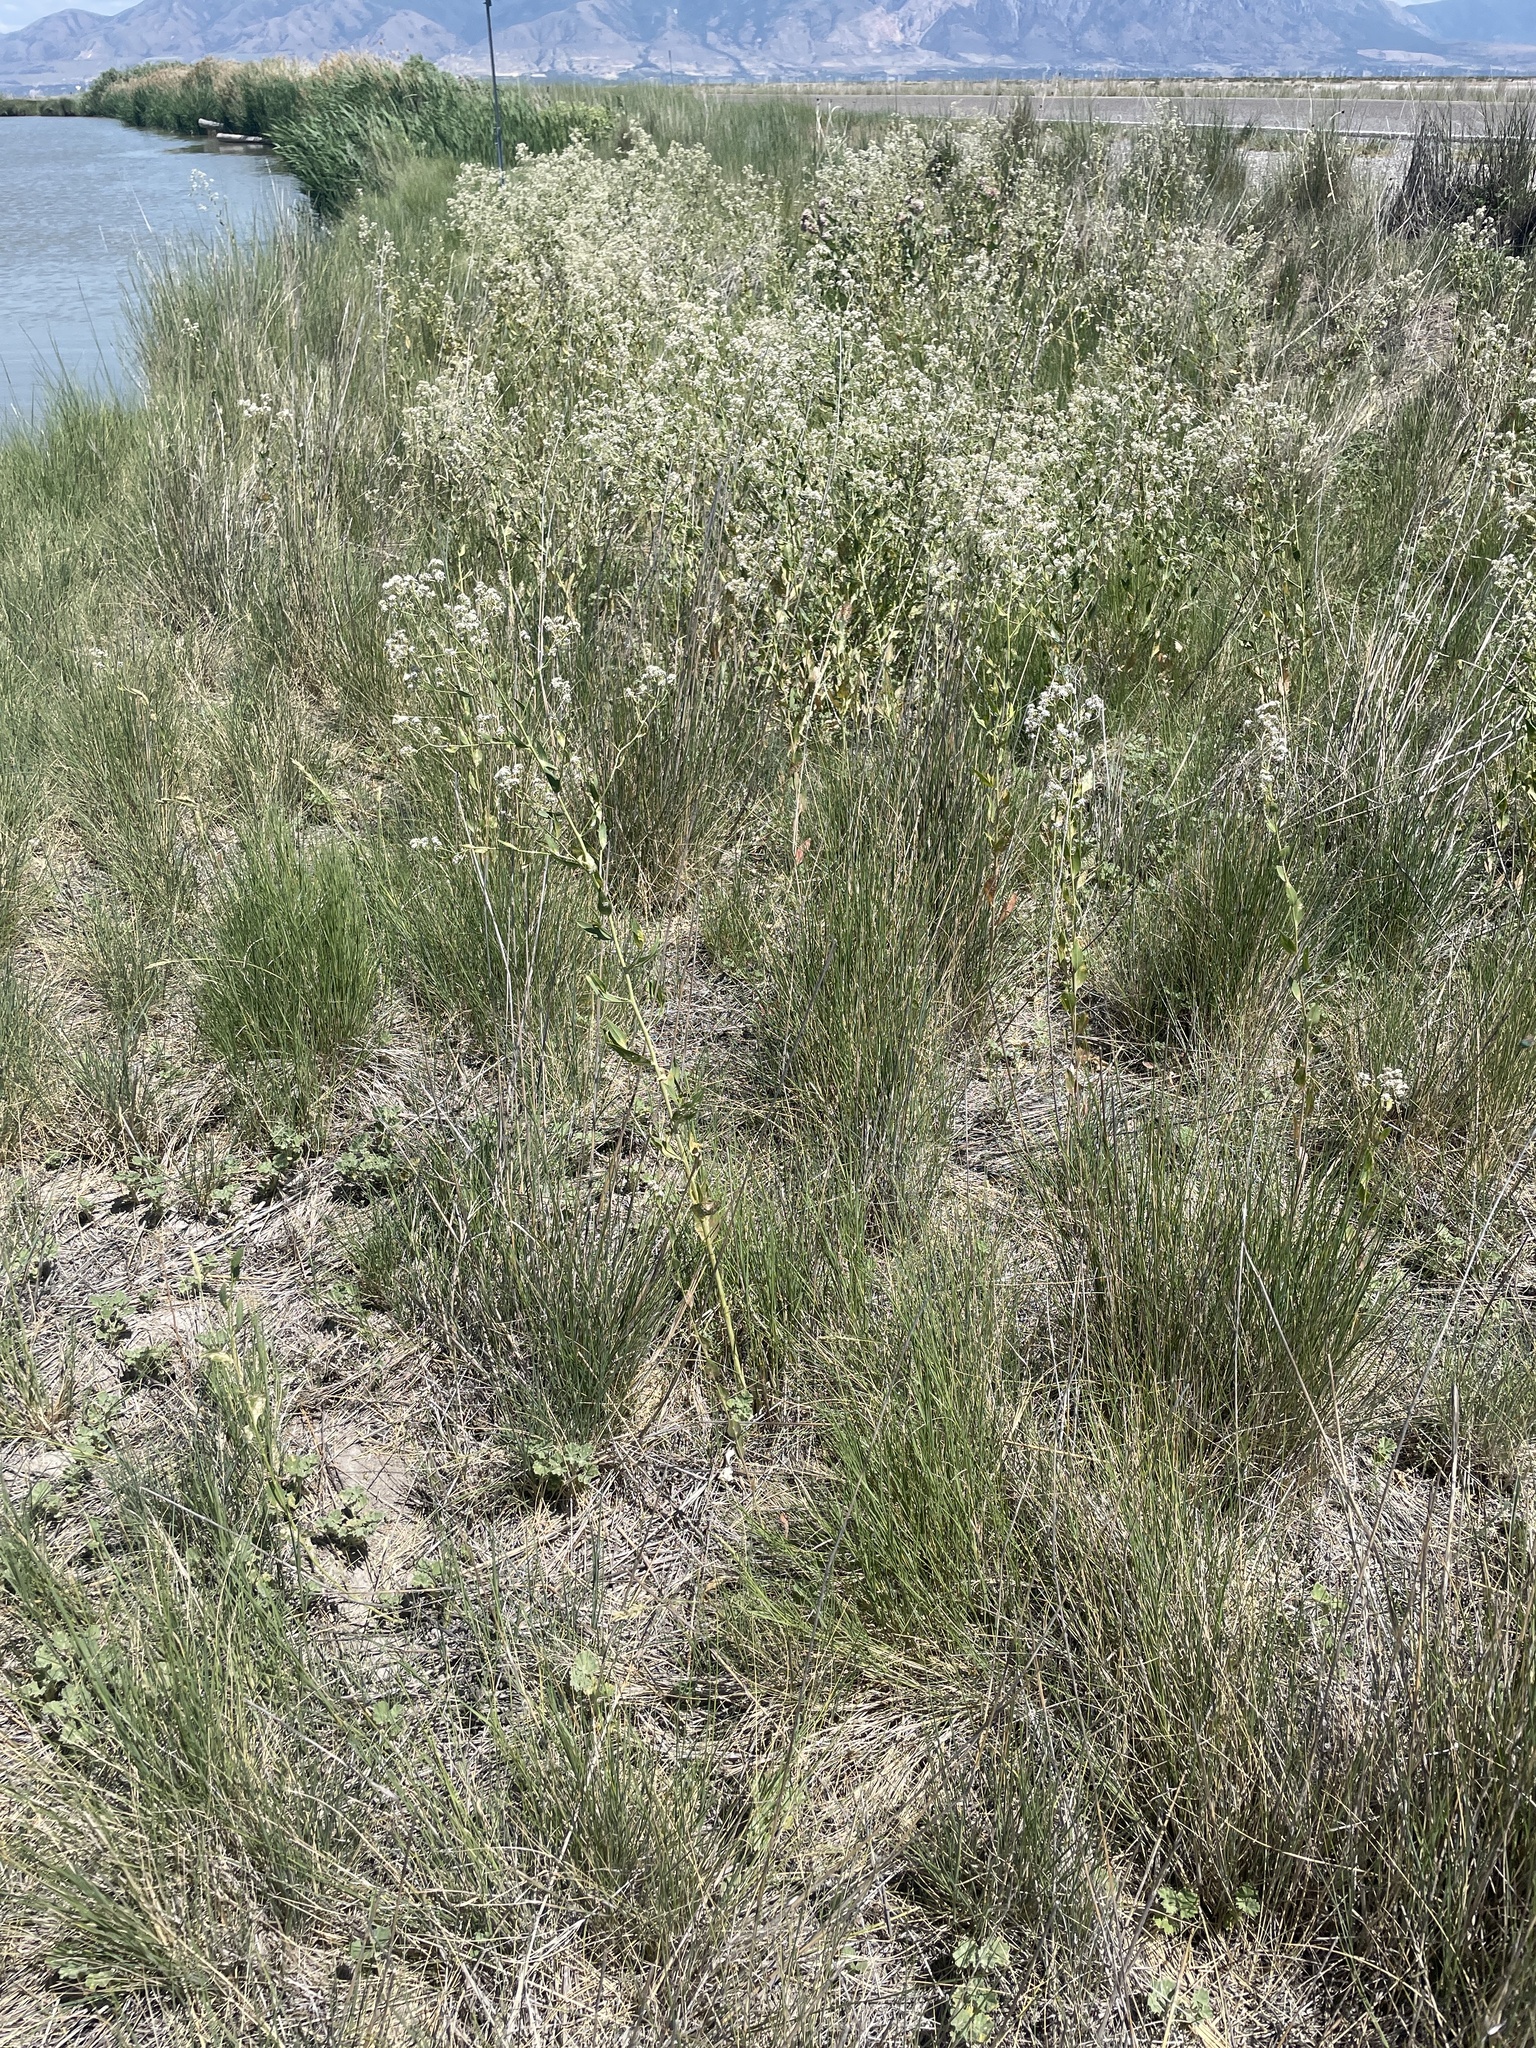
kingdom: Plantae
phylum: Tracheophyta
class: Magnoliopsida
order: Brassicales
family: Brassicaceae
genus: Lepidium
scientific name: Lepidium latifolium
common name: Dittander
